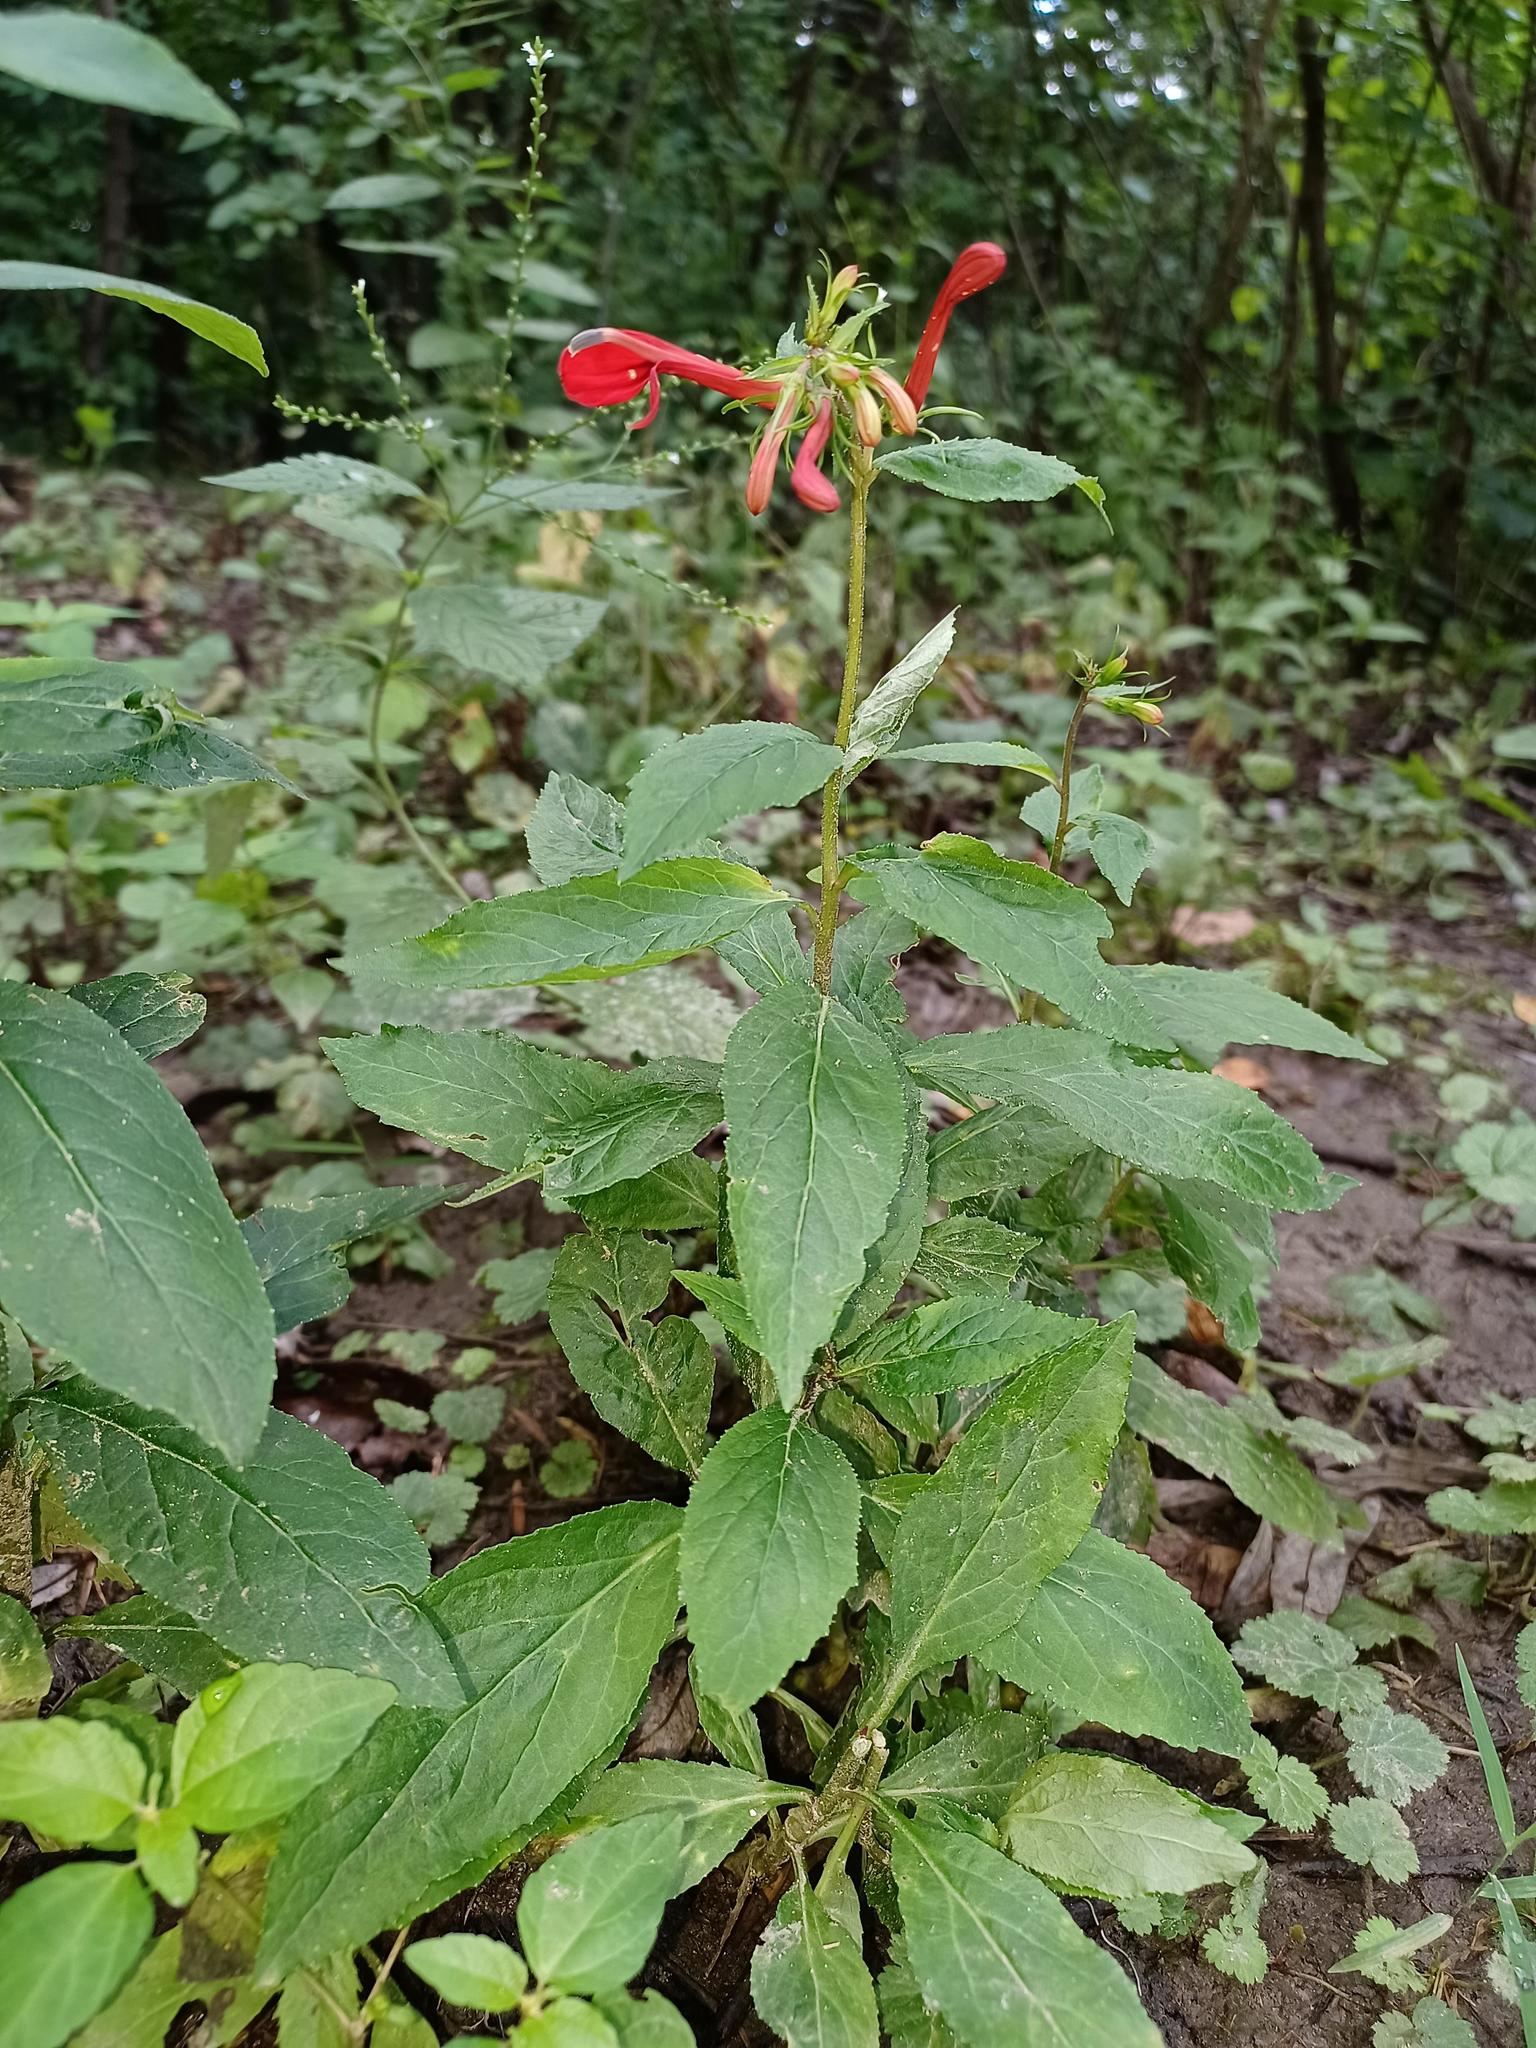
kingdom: Plantae
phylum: Tracheophyta
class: Magnoliopsida
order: Asterales
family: Campanulaceae
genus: Lobelia
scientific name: Lobelia cardinalis
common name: Cardinal flower
